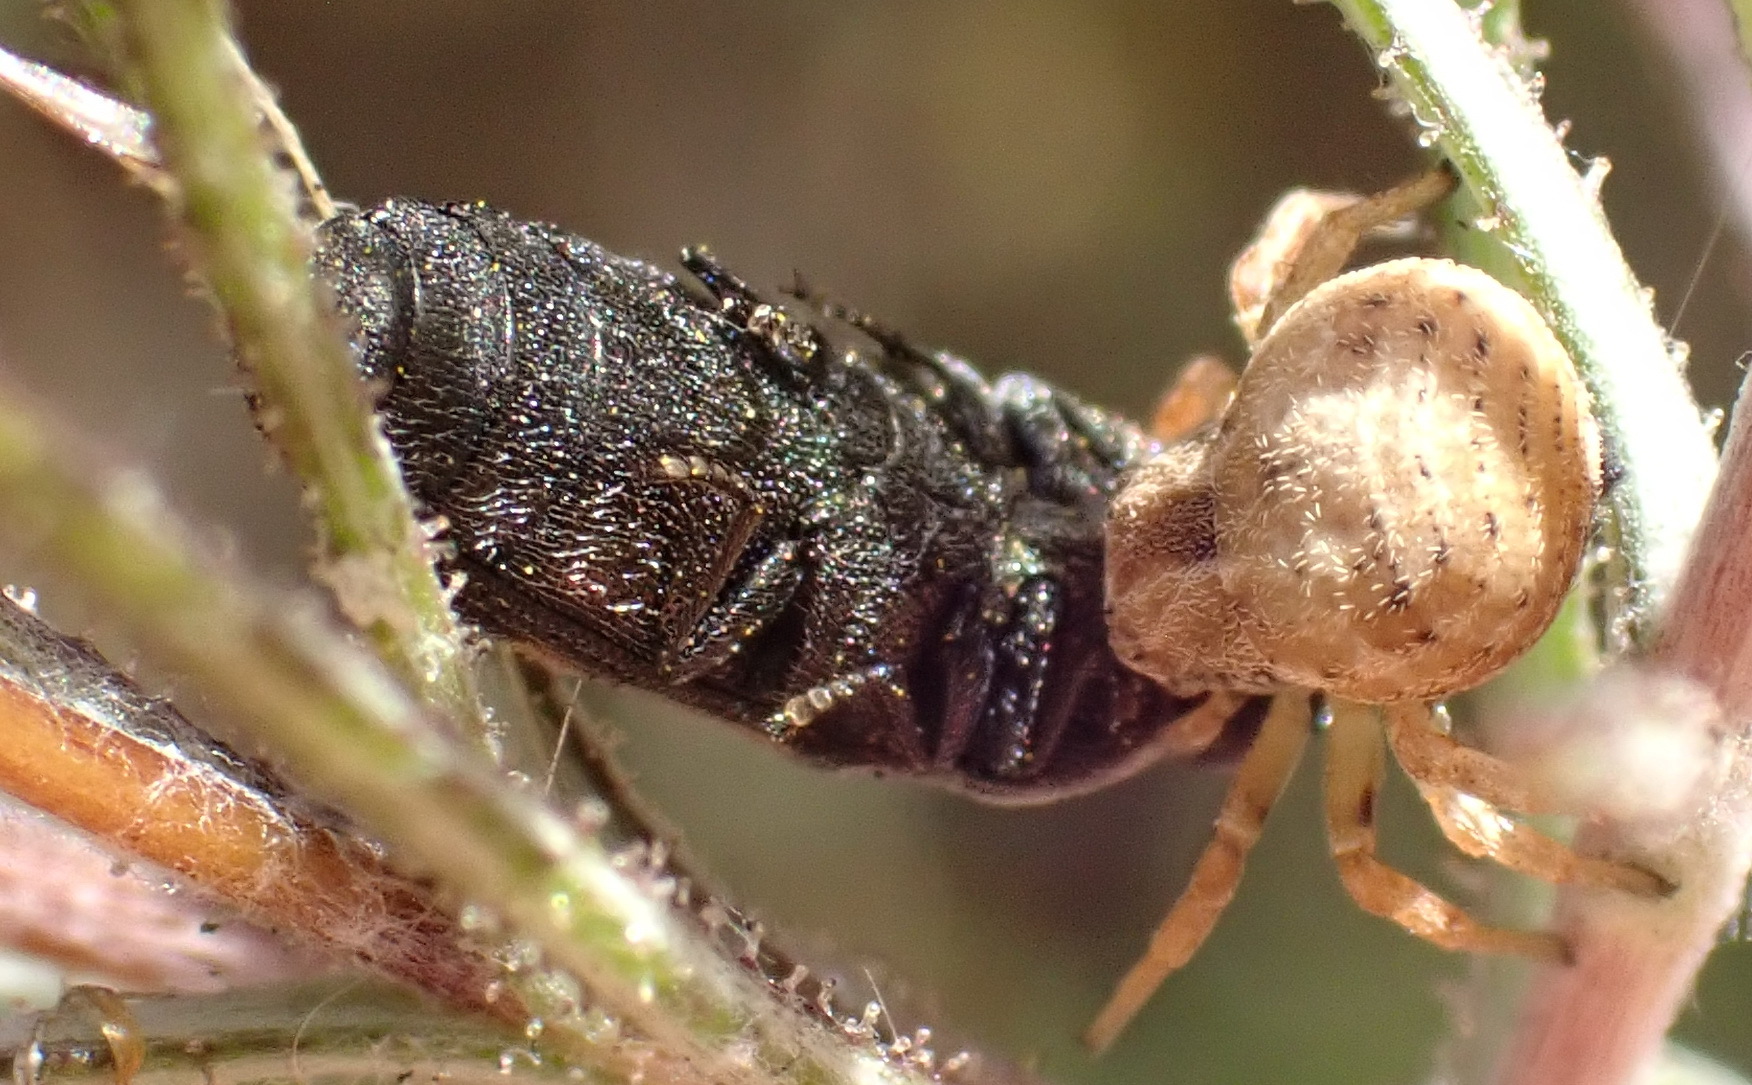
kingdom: Animalia
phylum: Arthropoda
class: Arachnida
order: Araneae
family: Thomisidae
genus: Holopelus
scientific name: Holopelus albibarbis
